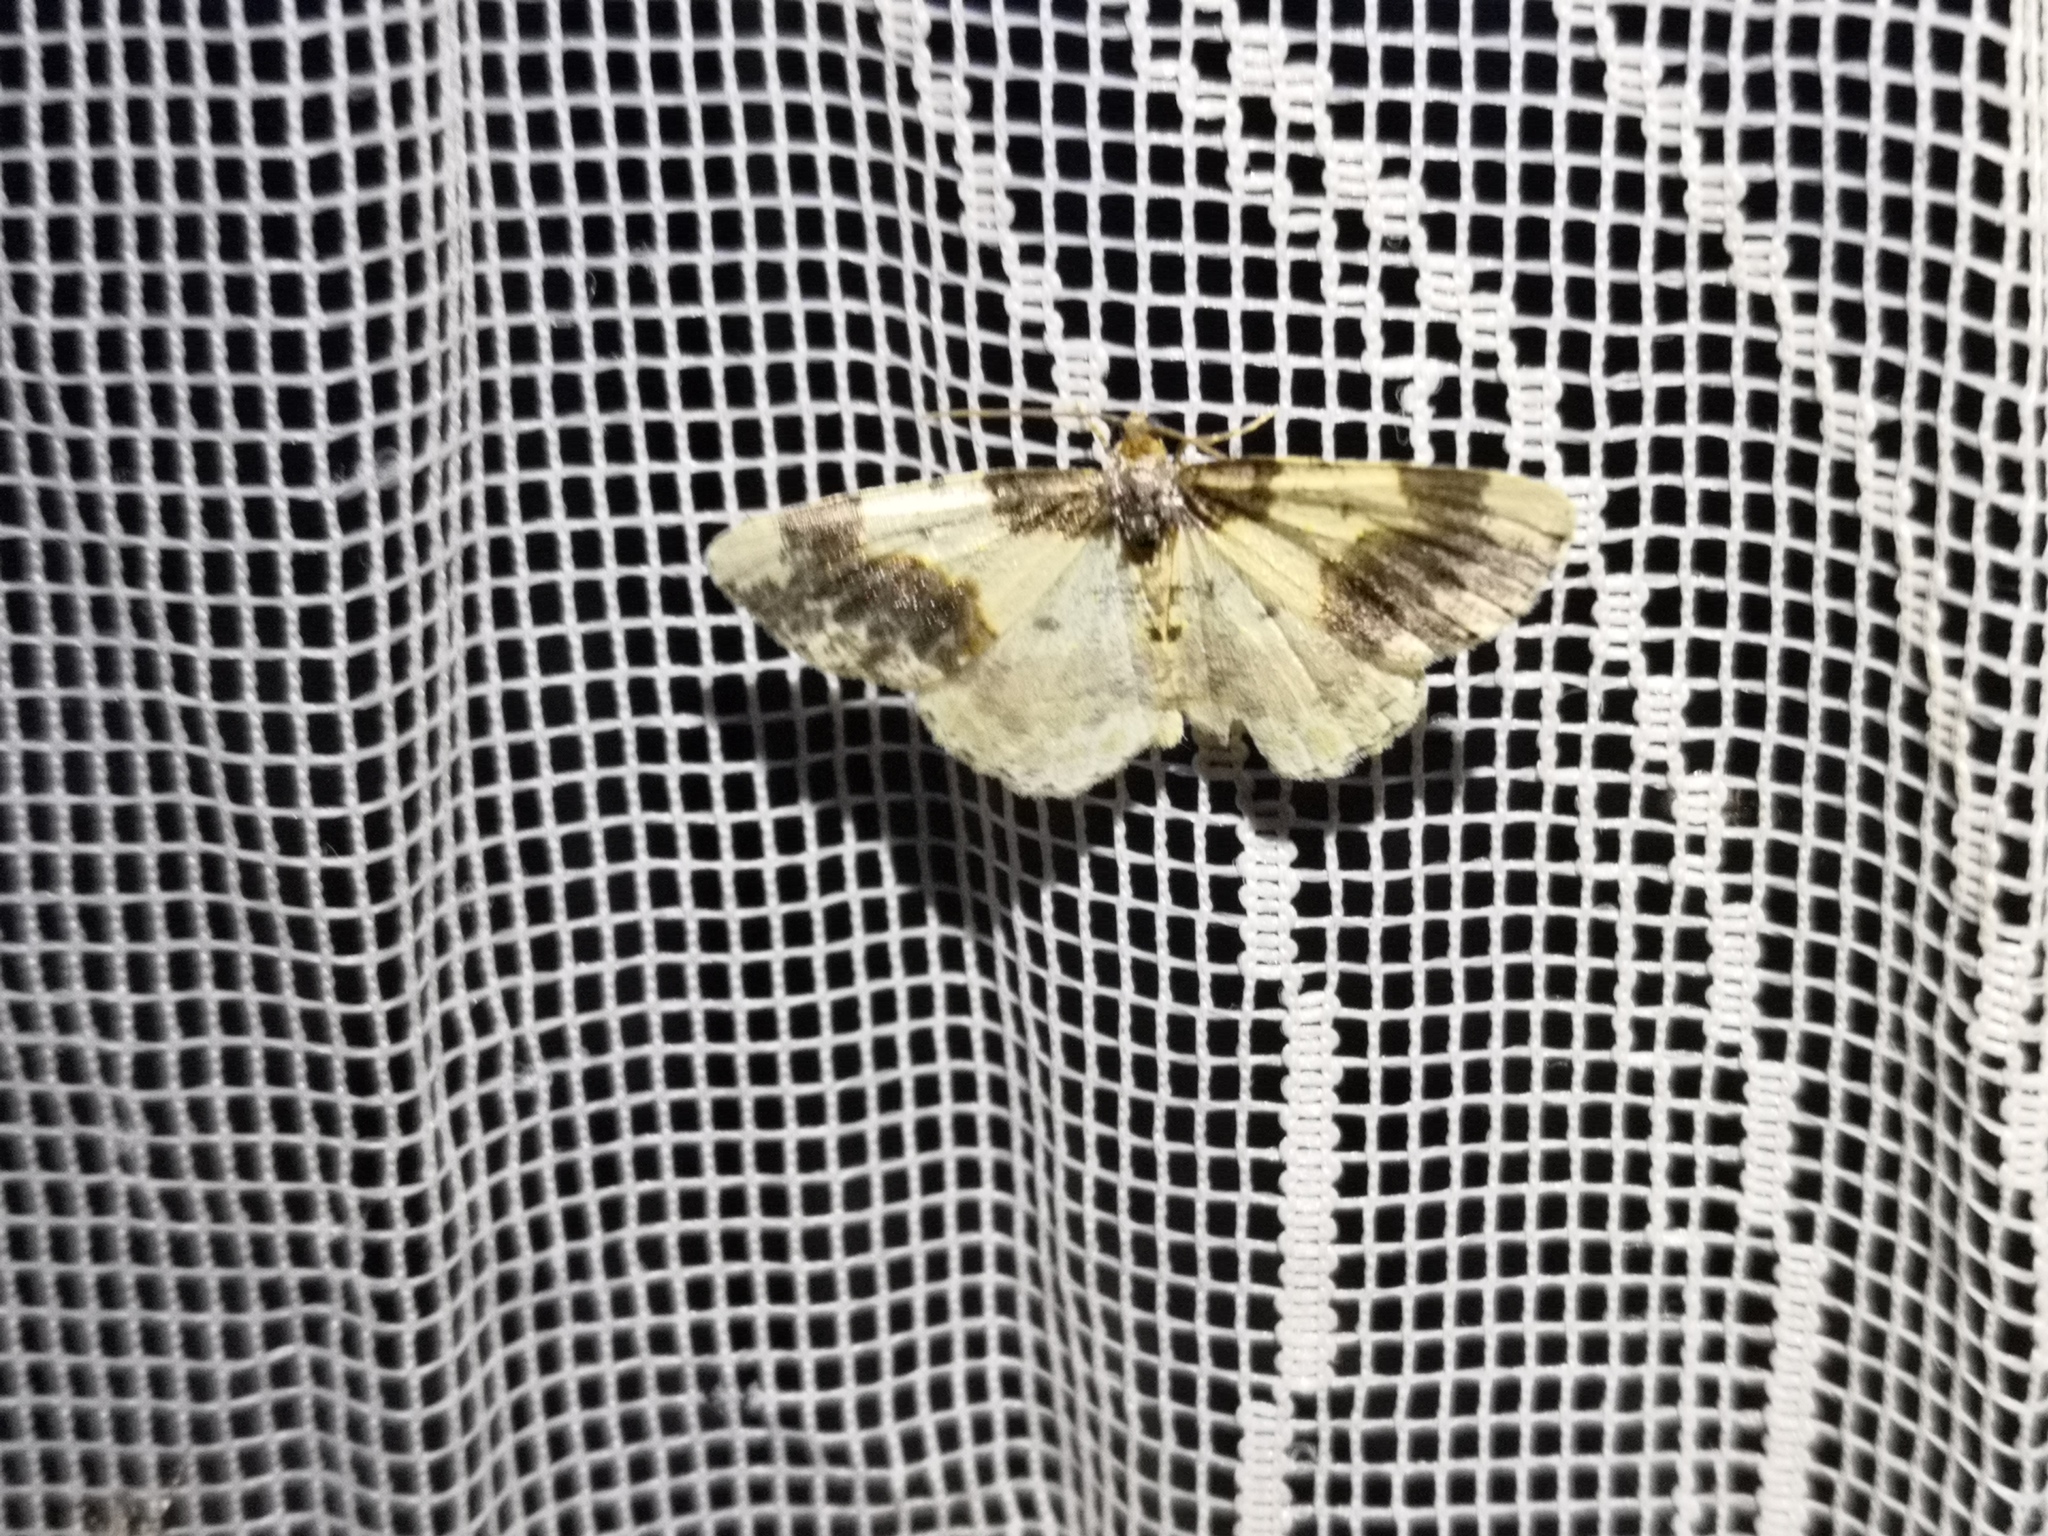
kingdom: Animalia
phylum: Arthropoda
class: Insecta
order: Lepidoptera
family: Geometridae
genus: Ligdia
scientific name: Ligdia adustata
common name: Scorched carpet
